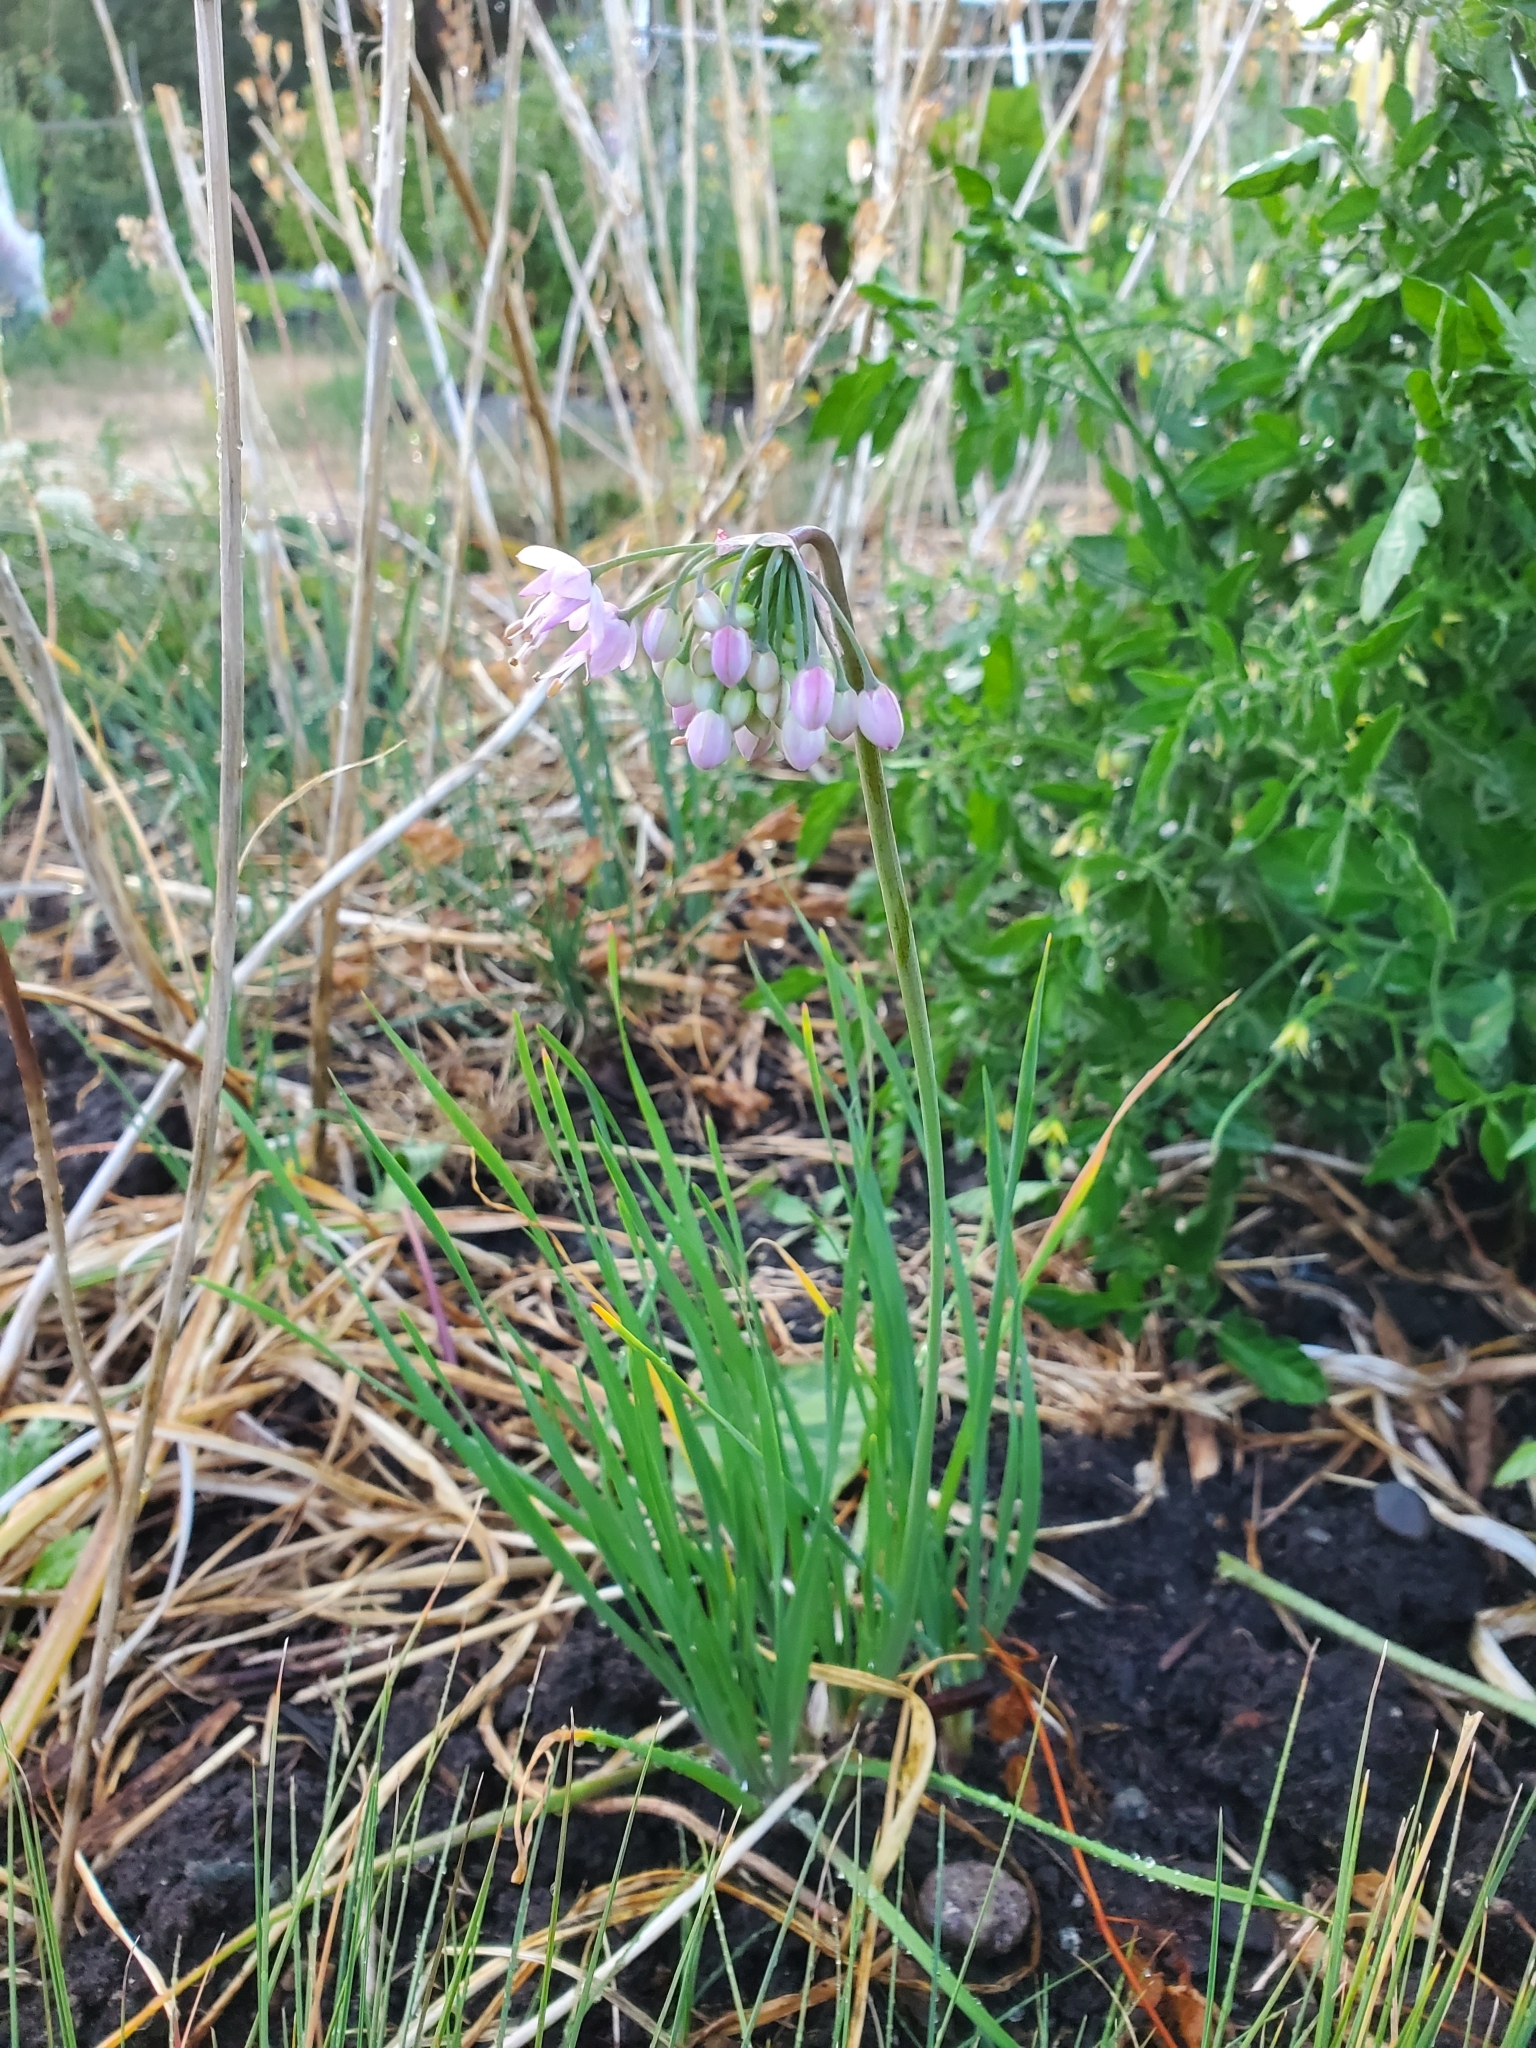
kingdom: Plantae
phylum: Tracheophyta
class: Liliopsida
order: Asparagales
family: Amaryllidaceae
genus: Allium
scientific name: Allium cernuum
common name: Nodding onion
